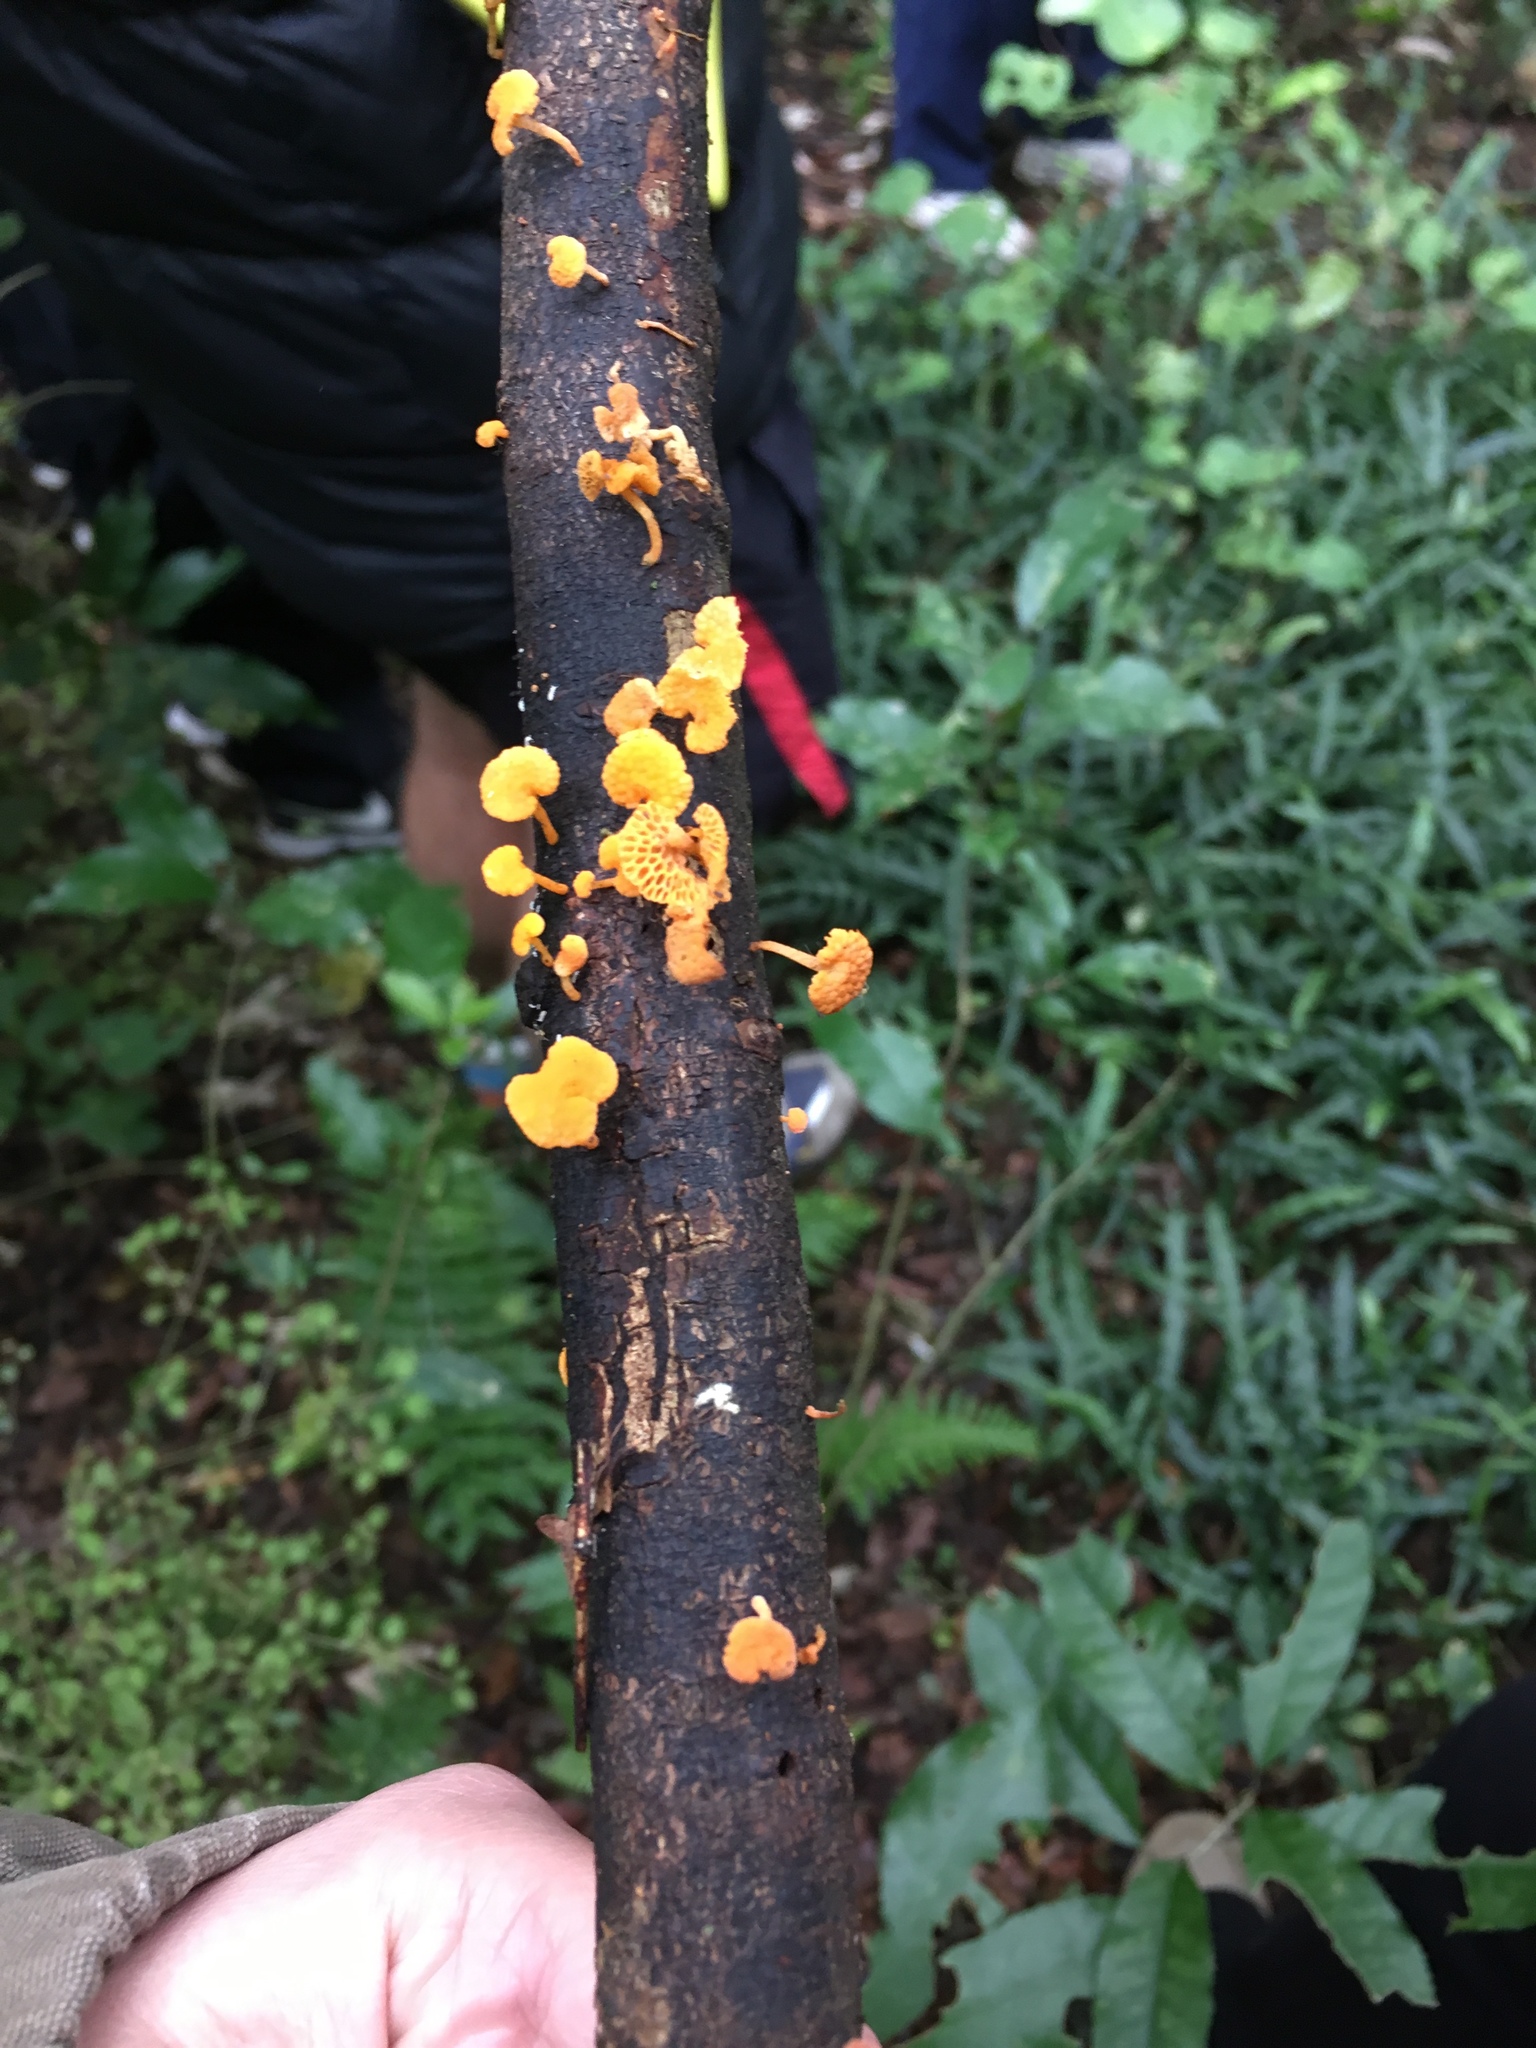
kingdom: Fungi
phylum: Basidiomycota
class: Agaricomycetes
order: Agaricales
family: Mycenaceae
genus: Favolaschia
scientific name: Favolaschia claudopus
